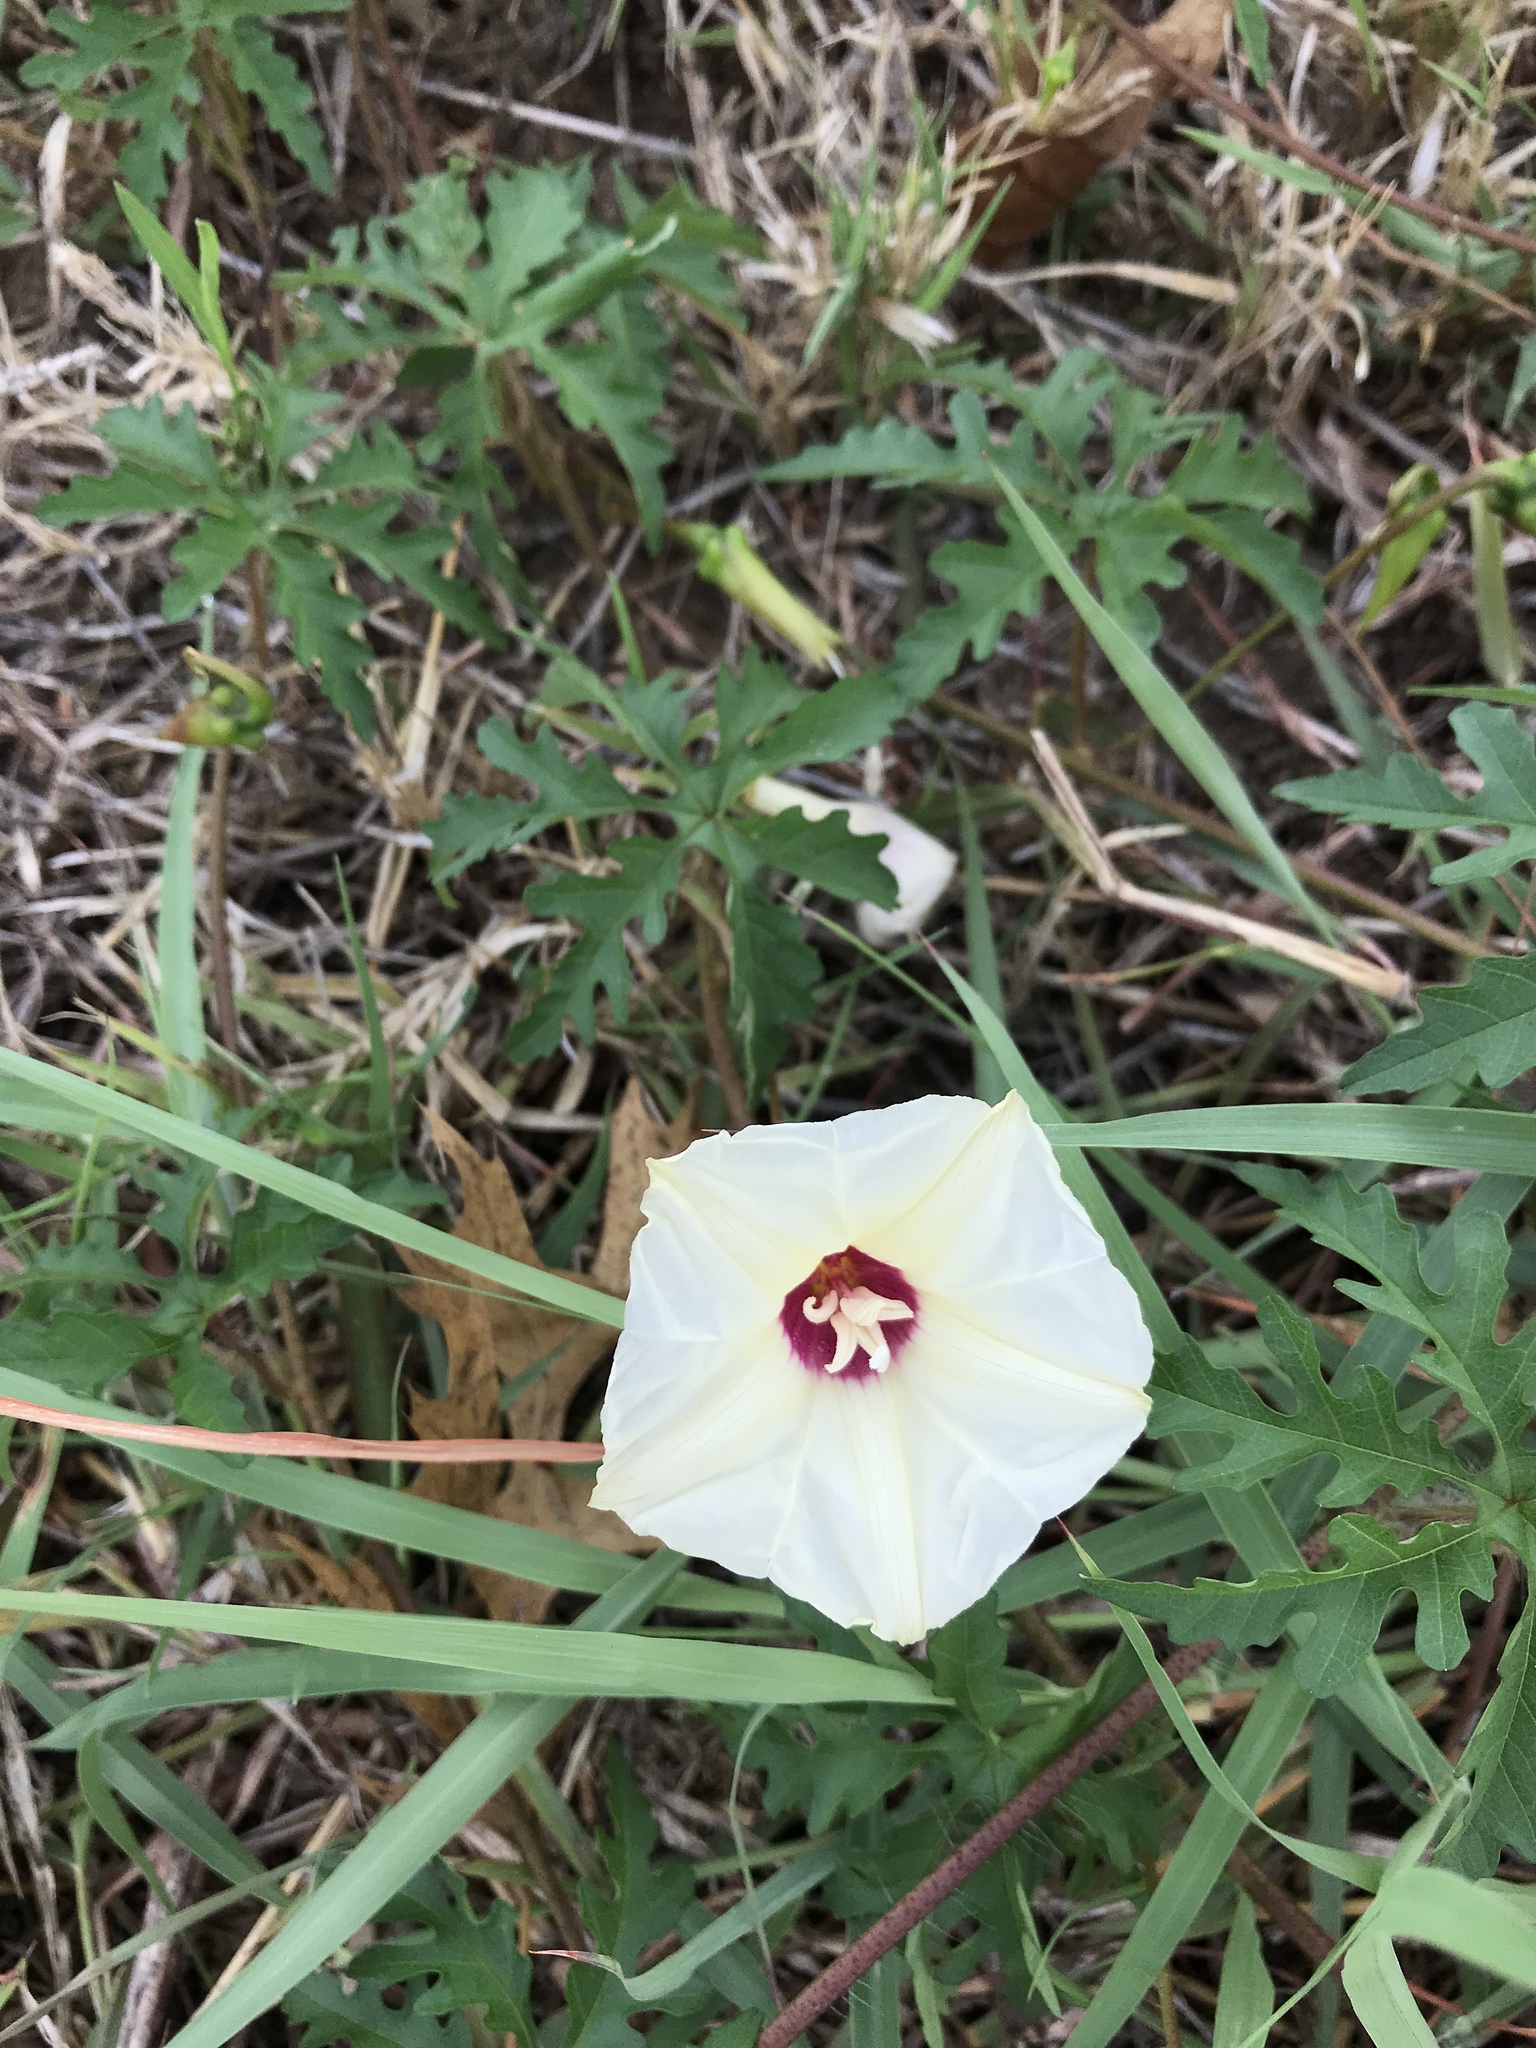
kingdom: Plantae
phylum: Tracheophyta
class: Magnoliopsida
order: Solanales
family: Convolvulaceae
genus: Distimake
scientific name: Distimake dissectus
